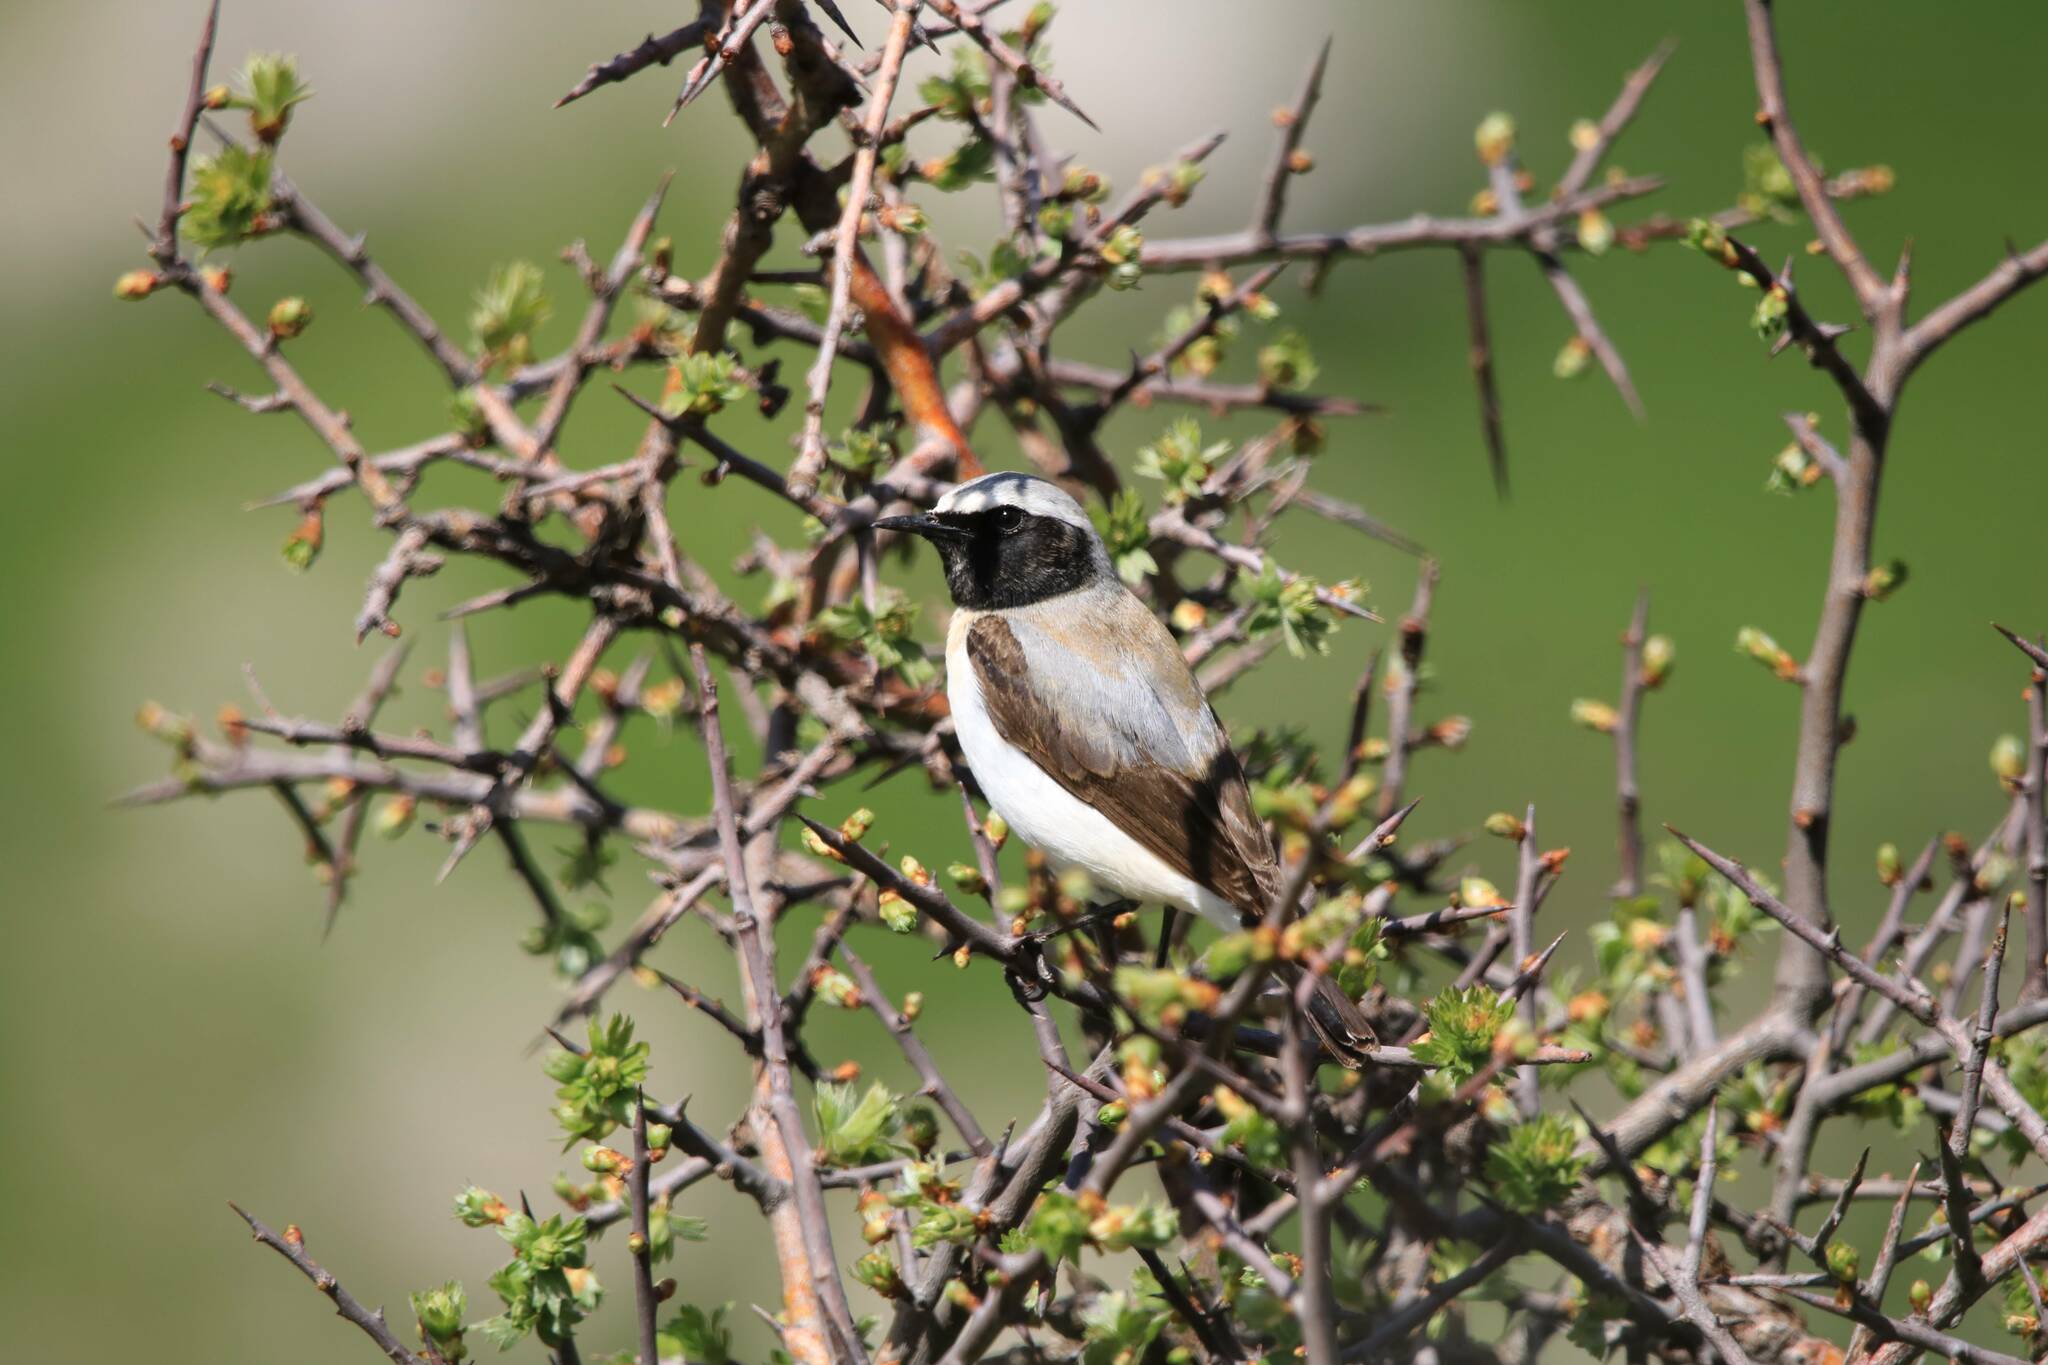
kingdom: Animalia
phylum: Chordata
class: Aves
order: Passeriformes
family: Muscicapidae
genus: Oenanthe
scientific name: Oenanthe oenanthe
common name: Northern wheatear
